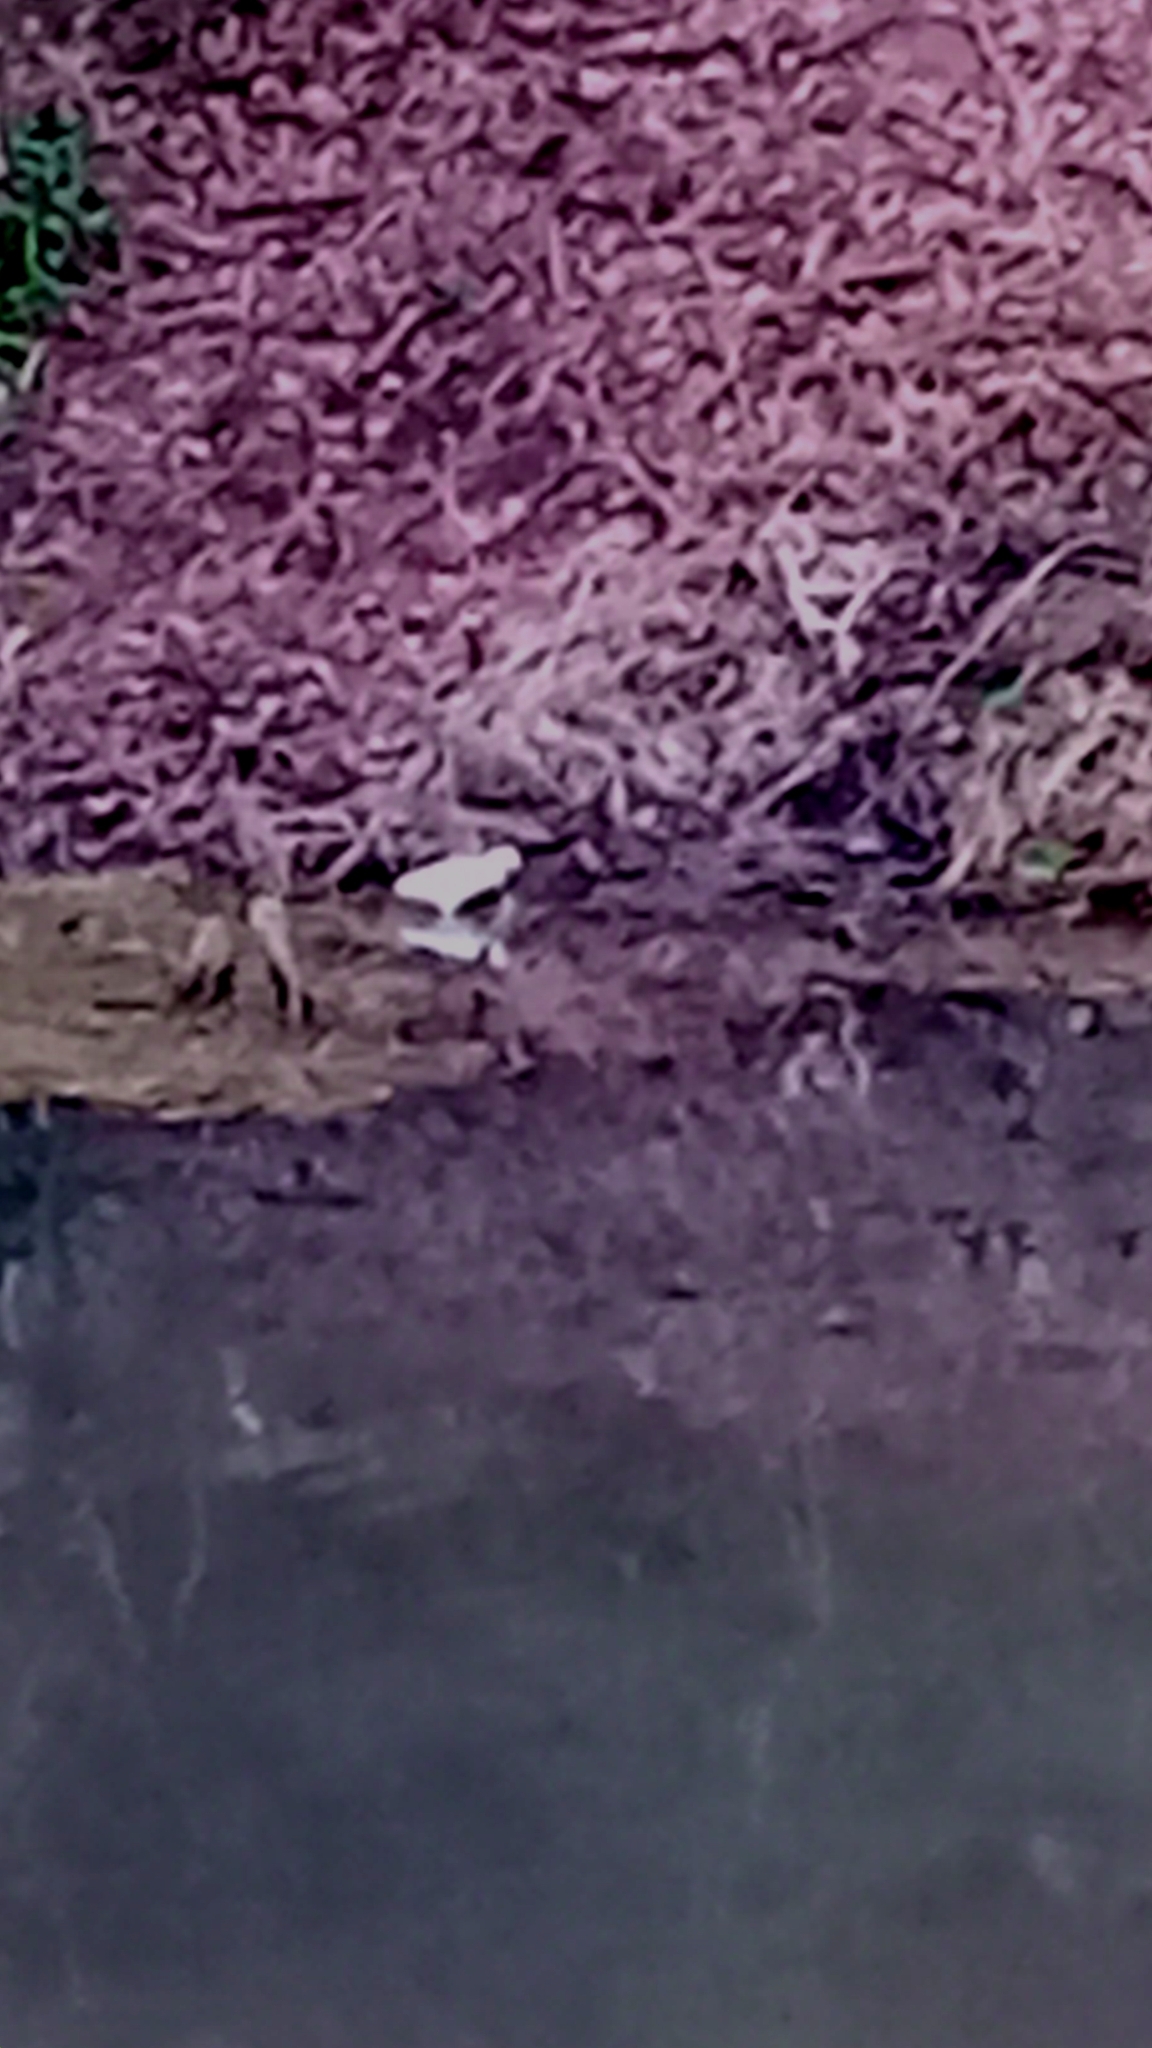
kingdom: Animalia
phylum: Chordata
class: Aves
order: Pelecaniformes
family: Ardeidae
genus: Egretta
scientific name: Egretta garzetta
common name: Little egret
